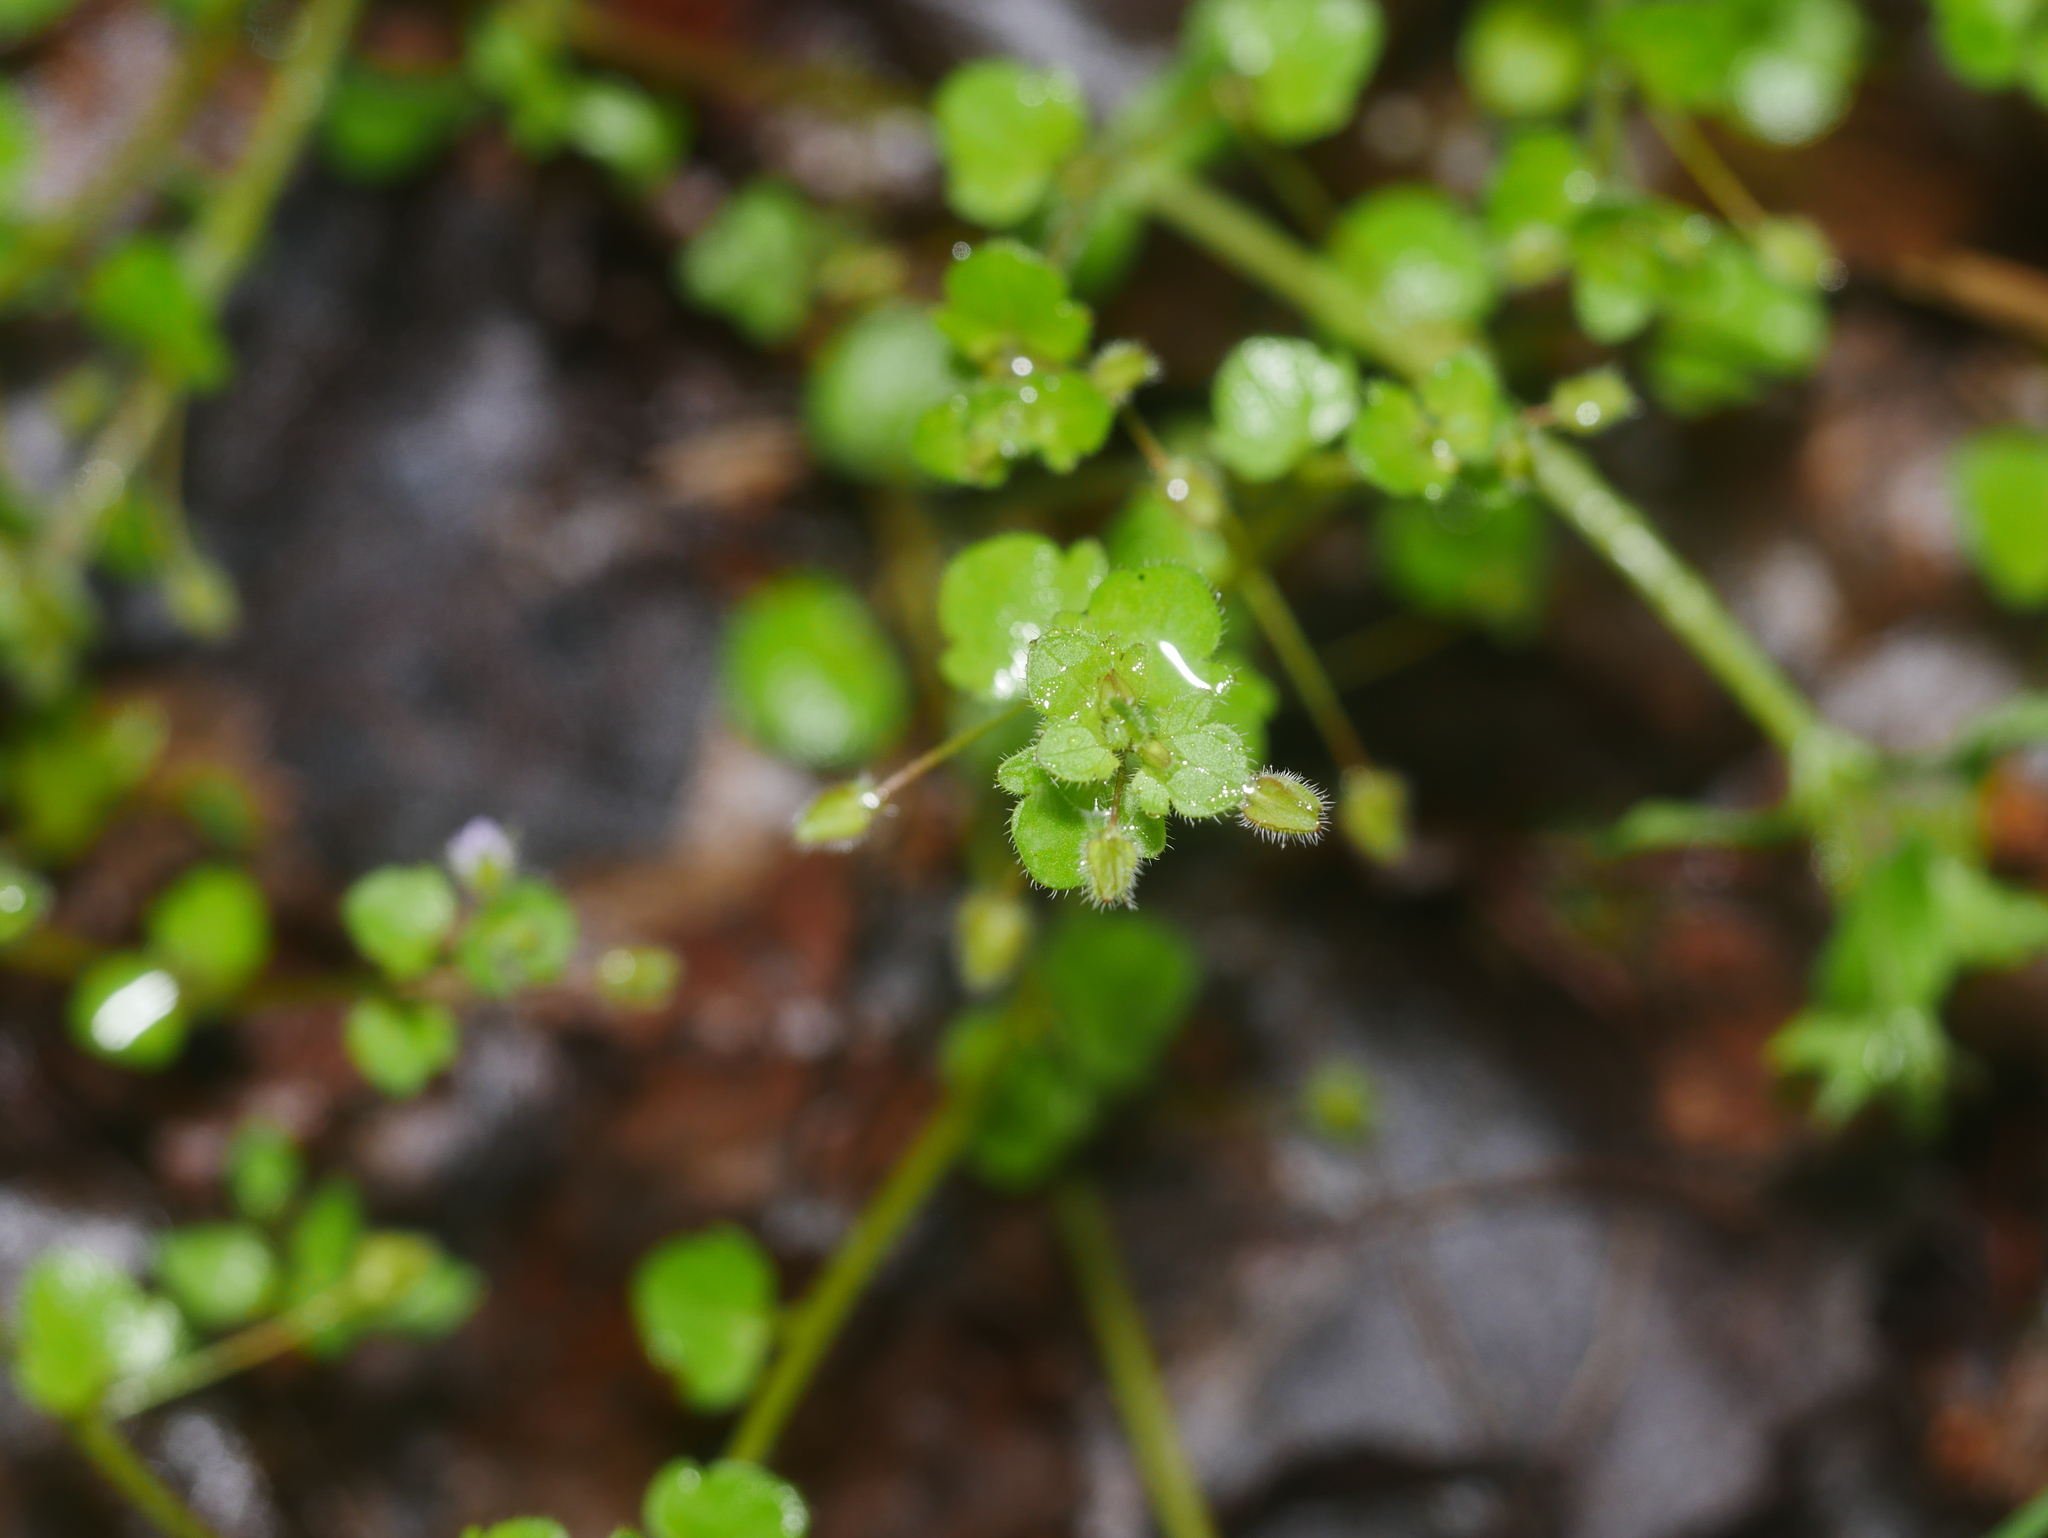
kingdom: Plantae
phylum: Tracheophyta
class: Magnoliopsida
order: Lamiales
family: Plantaginaceae
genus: Veronica
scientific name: Veronica sublobata
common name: False ivy-leaved speedwell
